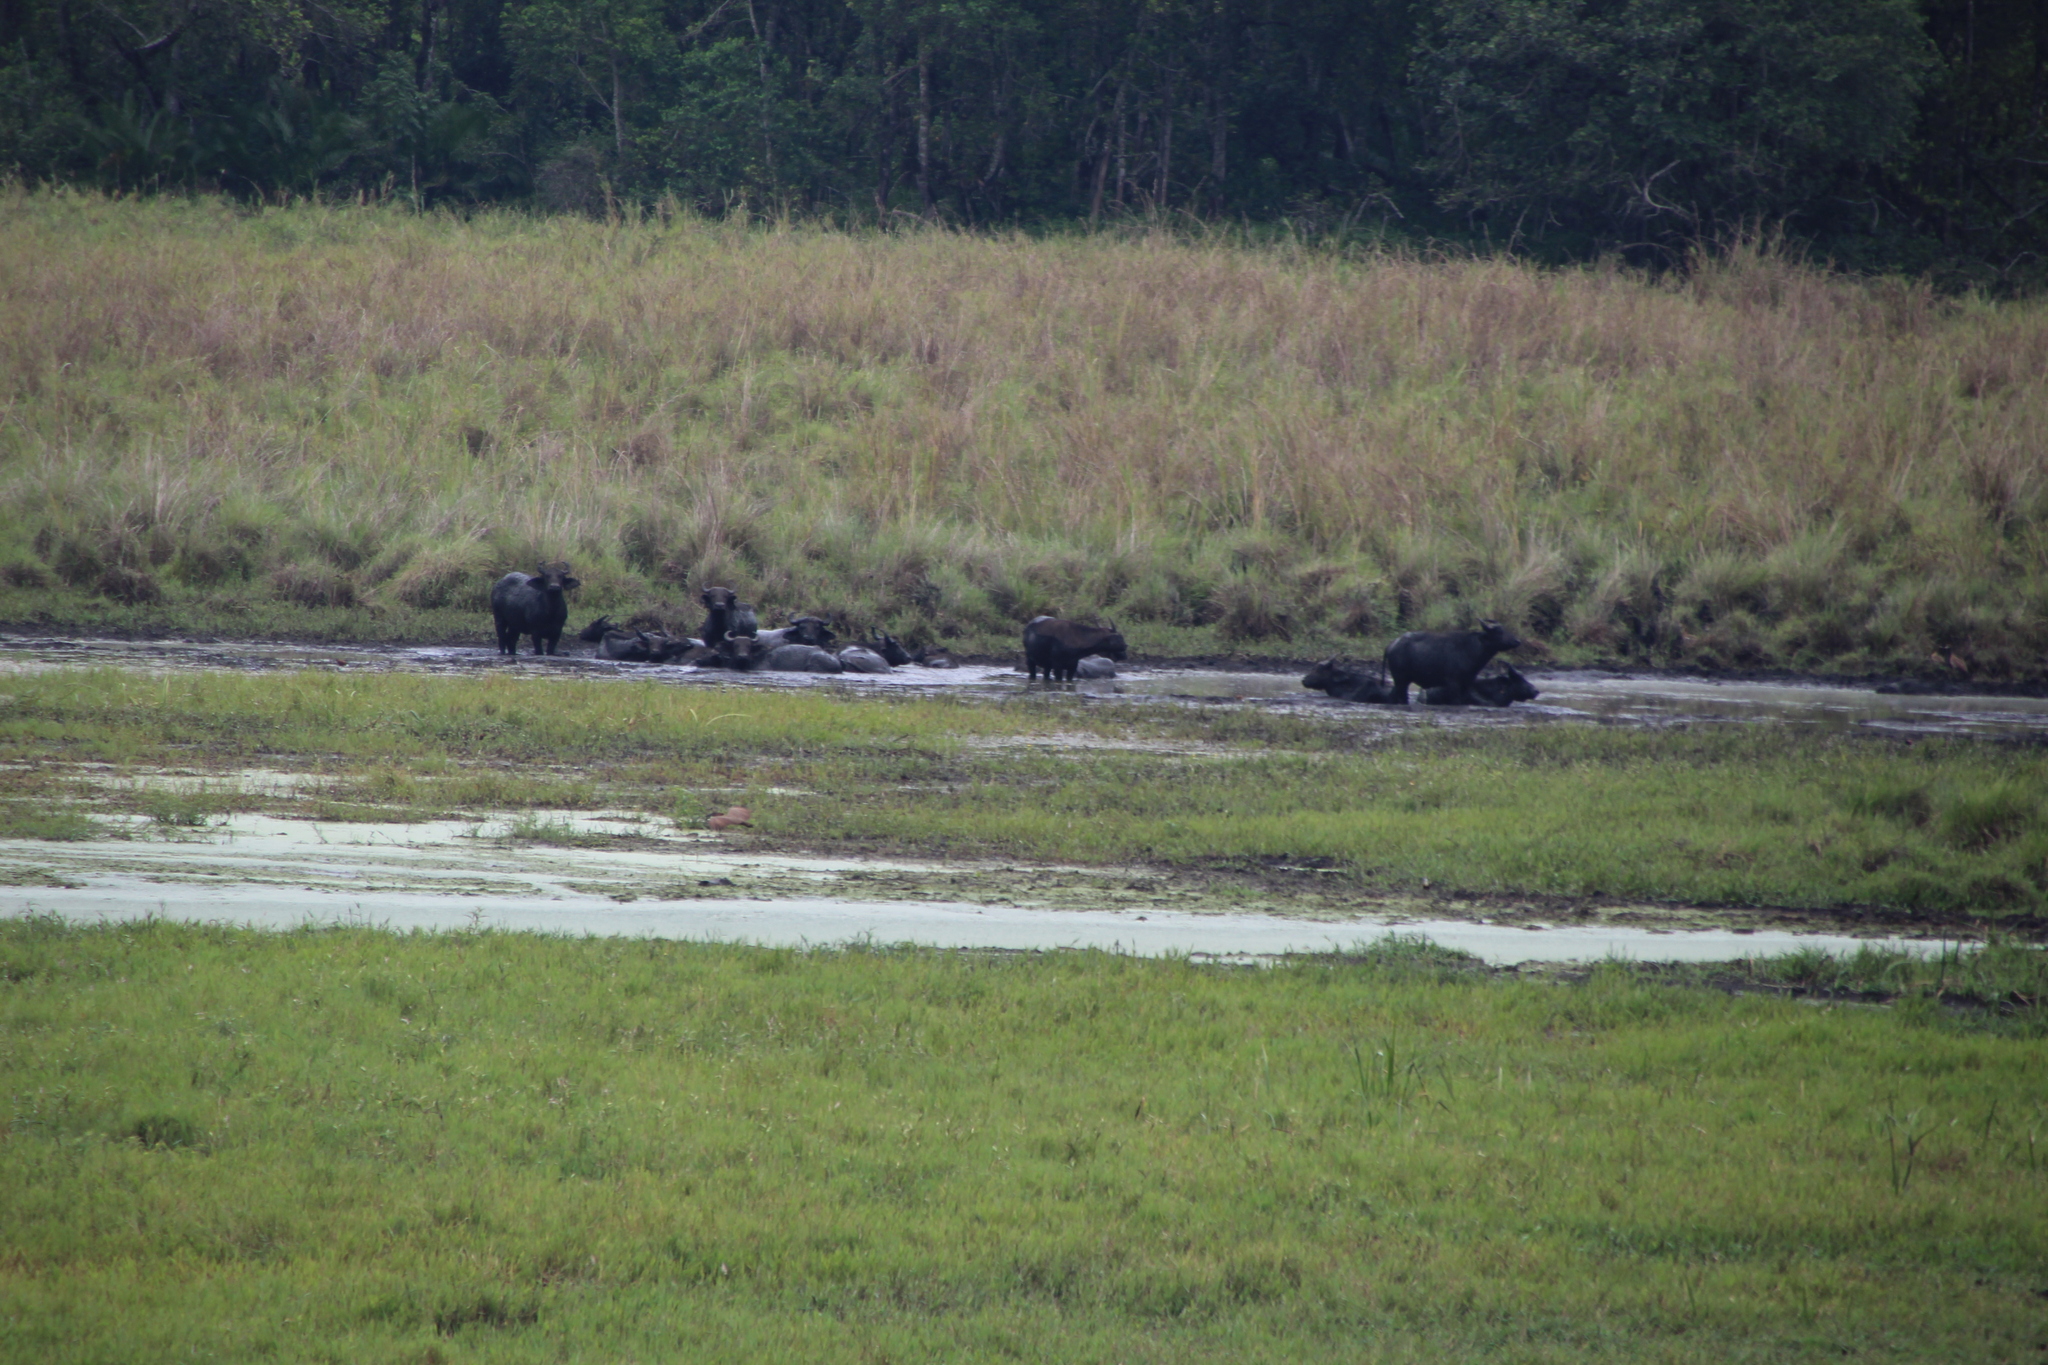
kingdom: Animalia
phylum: Chordata
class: Mammalia
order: Artiodactyla
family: Bovidae
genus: Syncerus
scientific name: Syncerus caffer
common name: African buffalo
